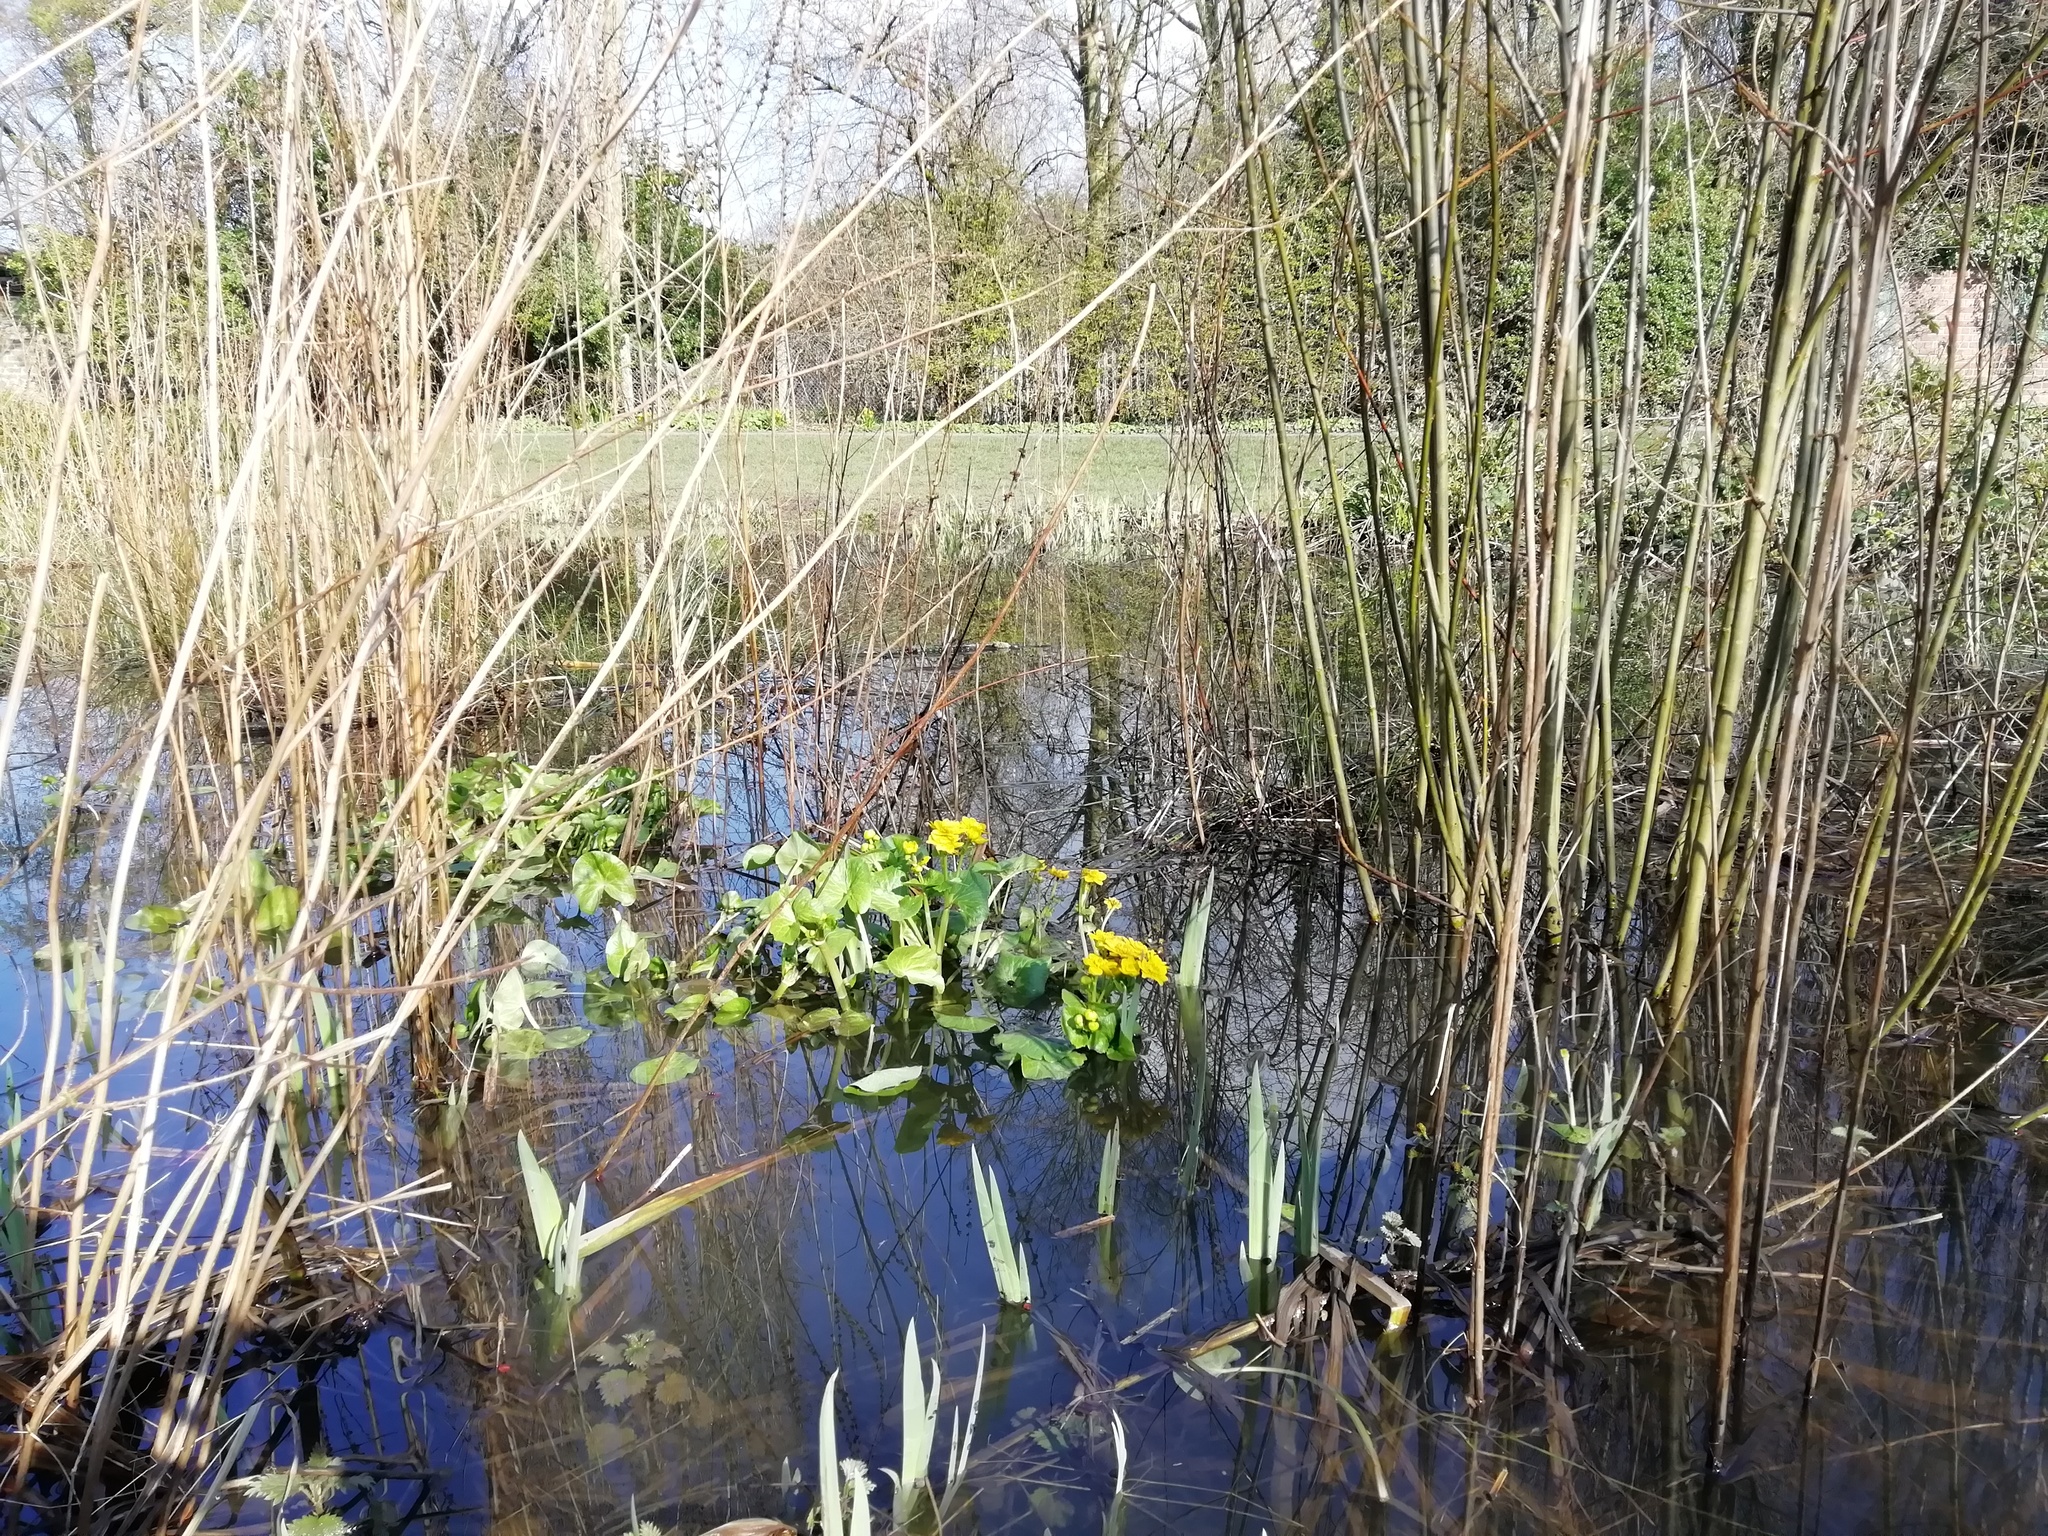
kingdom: Plantae
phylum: Tracheophyta
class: Magnoliopsida
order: Ranunculales
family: Ranunculaceae
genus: Caltha
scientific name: Caltha palustris
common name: Marsh marigold
